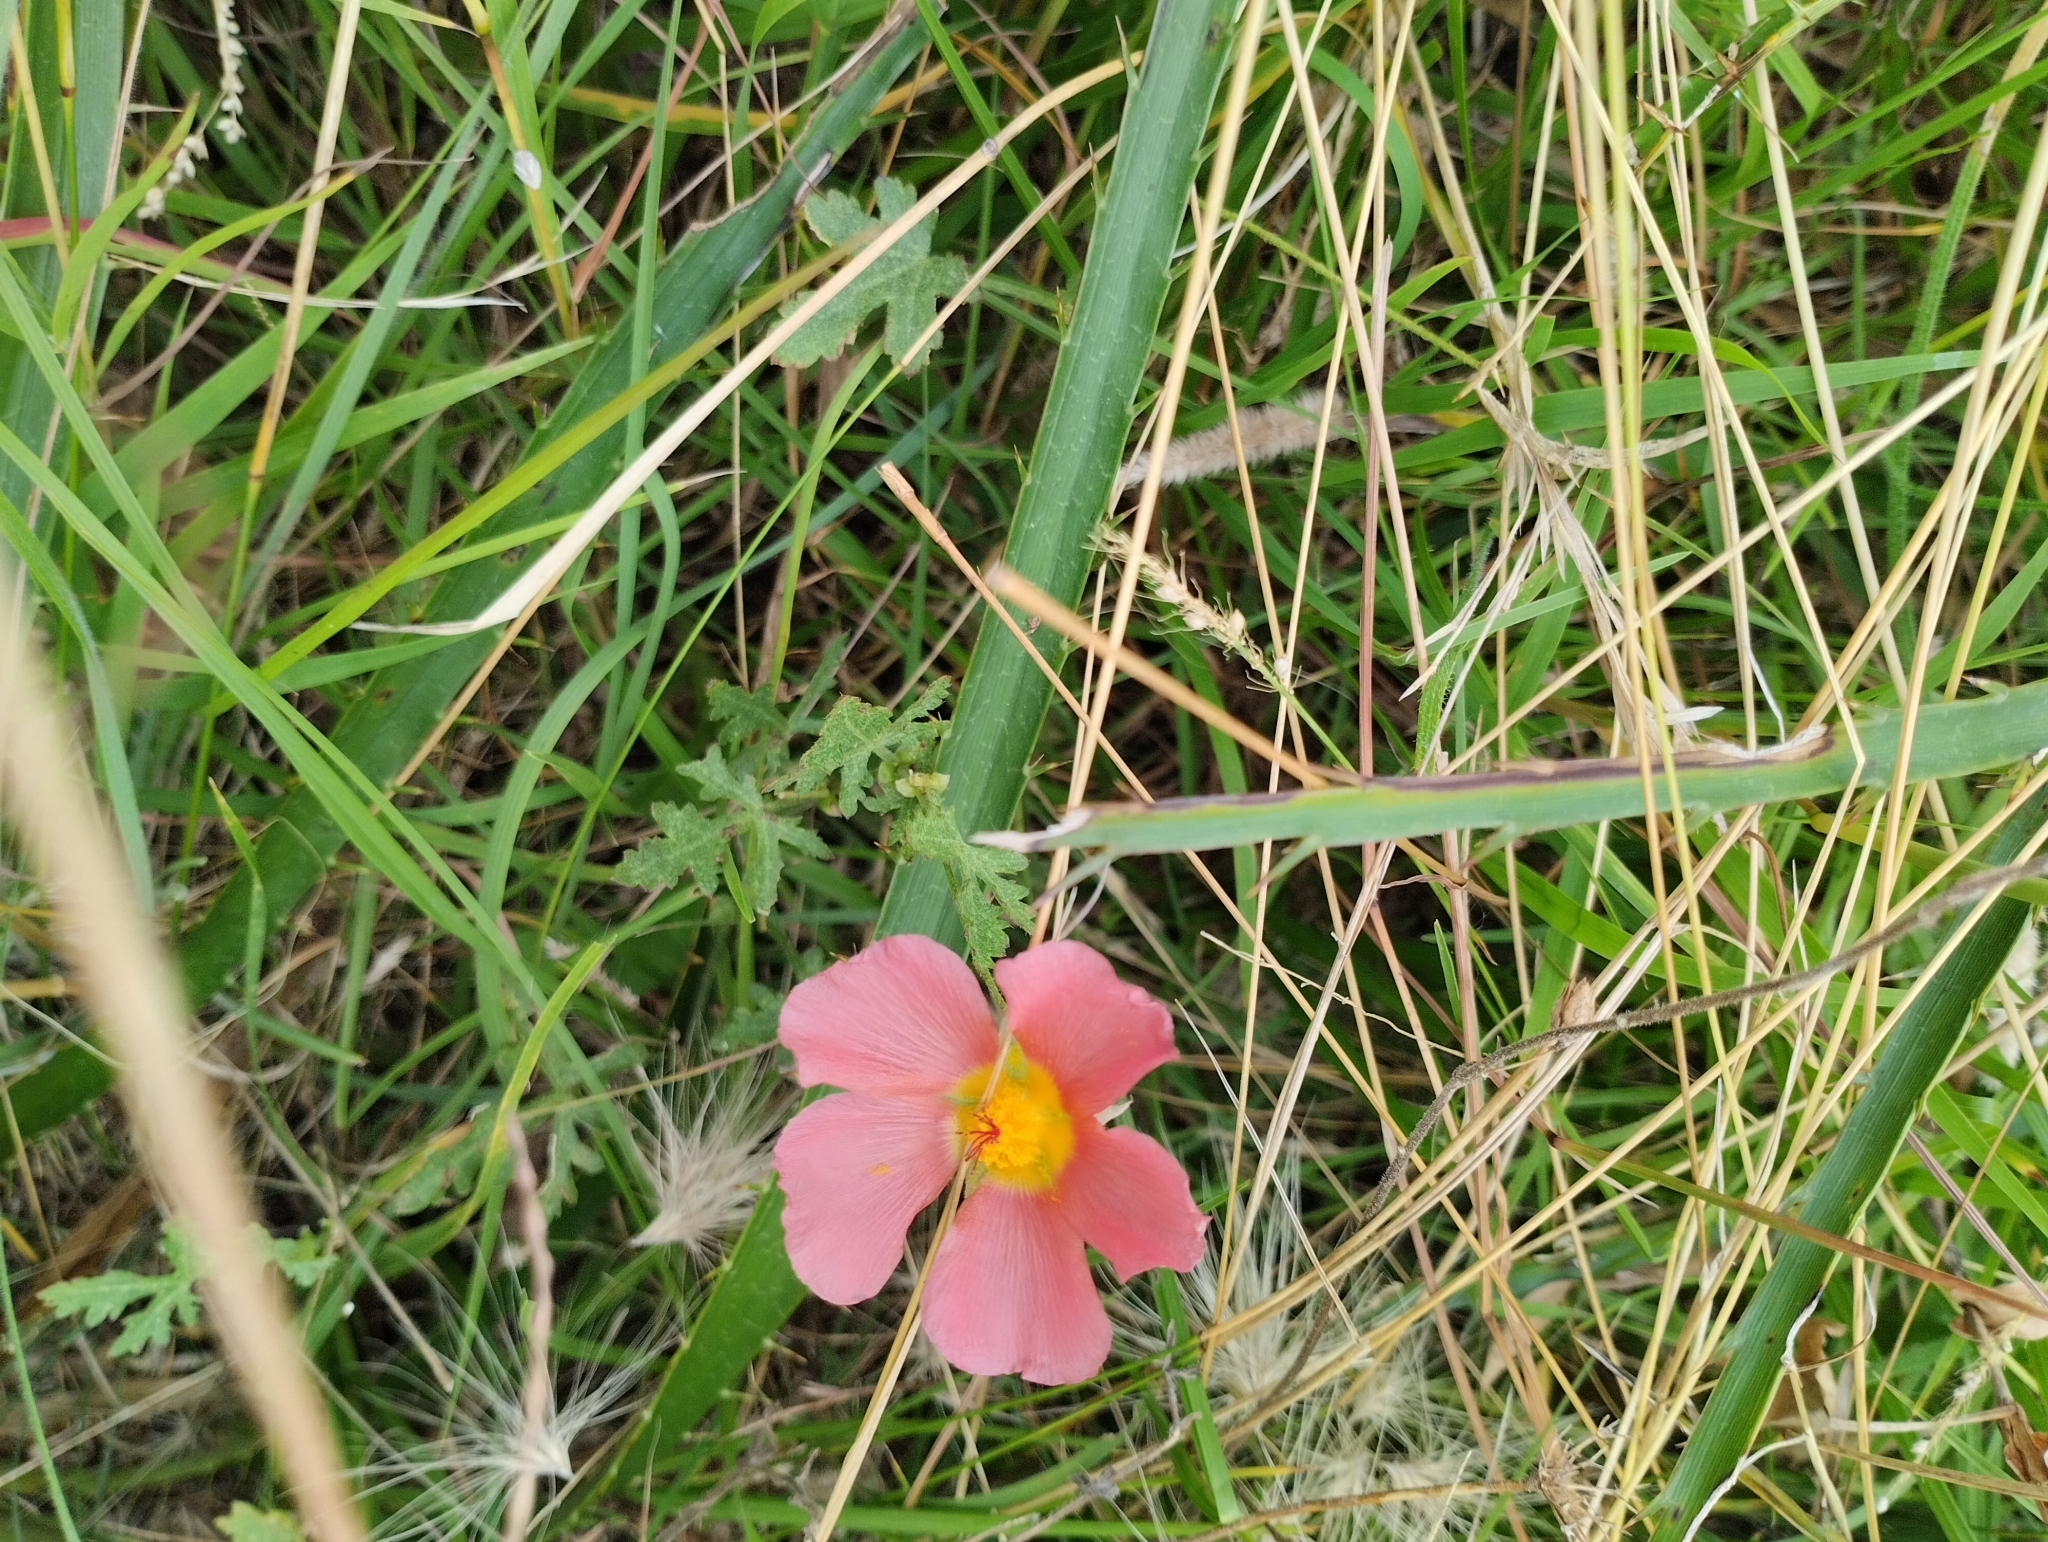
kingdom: Plantae
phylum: Tracheophyta
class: Magnoliopsida
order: Malvales
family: Malvaceae
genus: Modiola
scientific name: Modiola caroliniana
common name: Carolina bristlemallow
